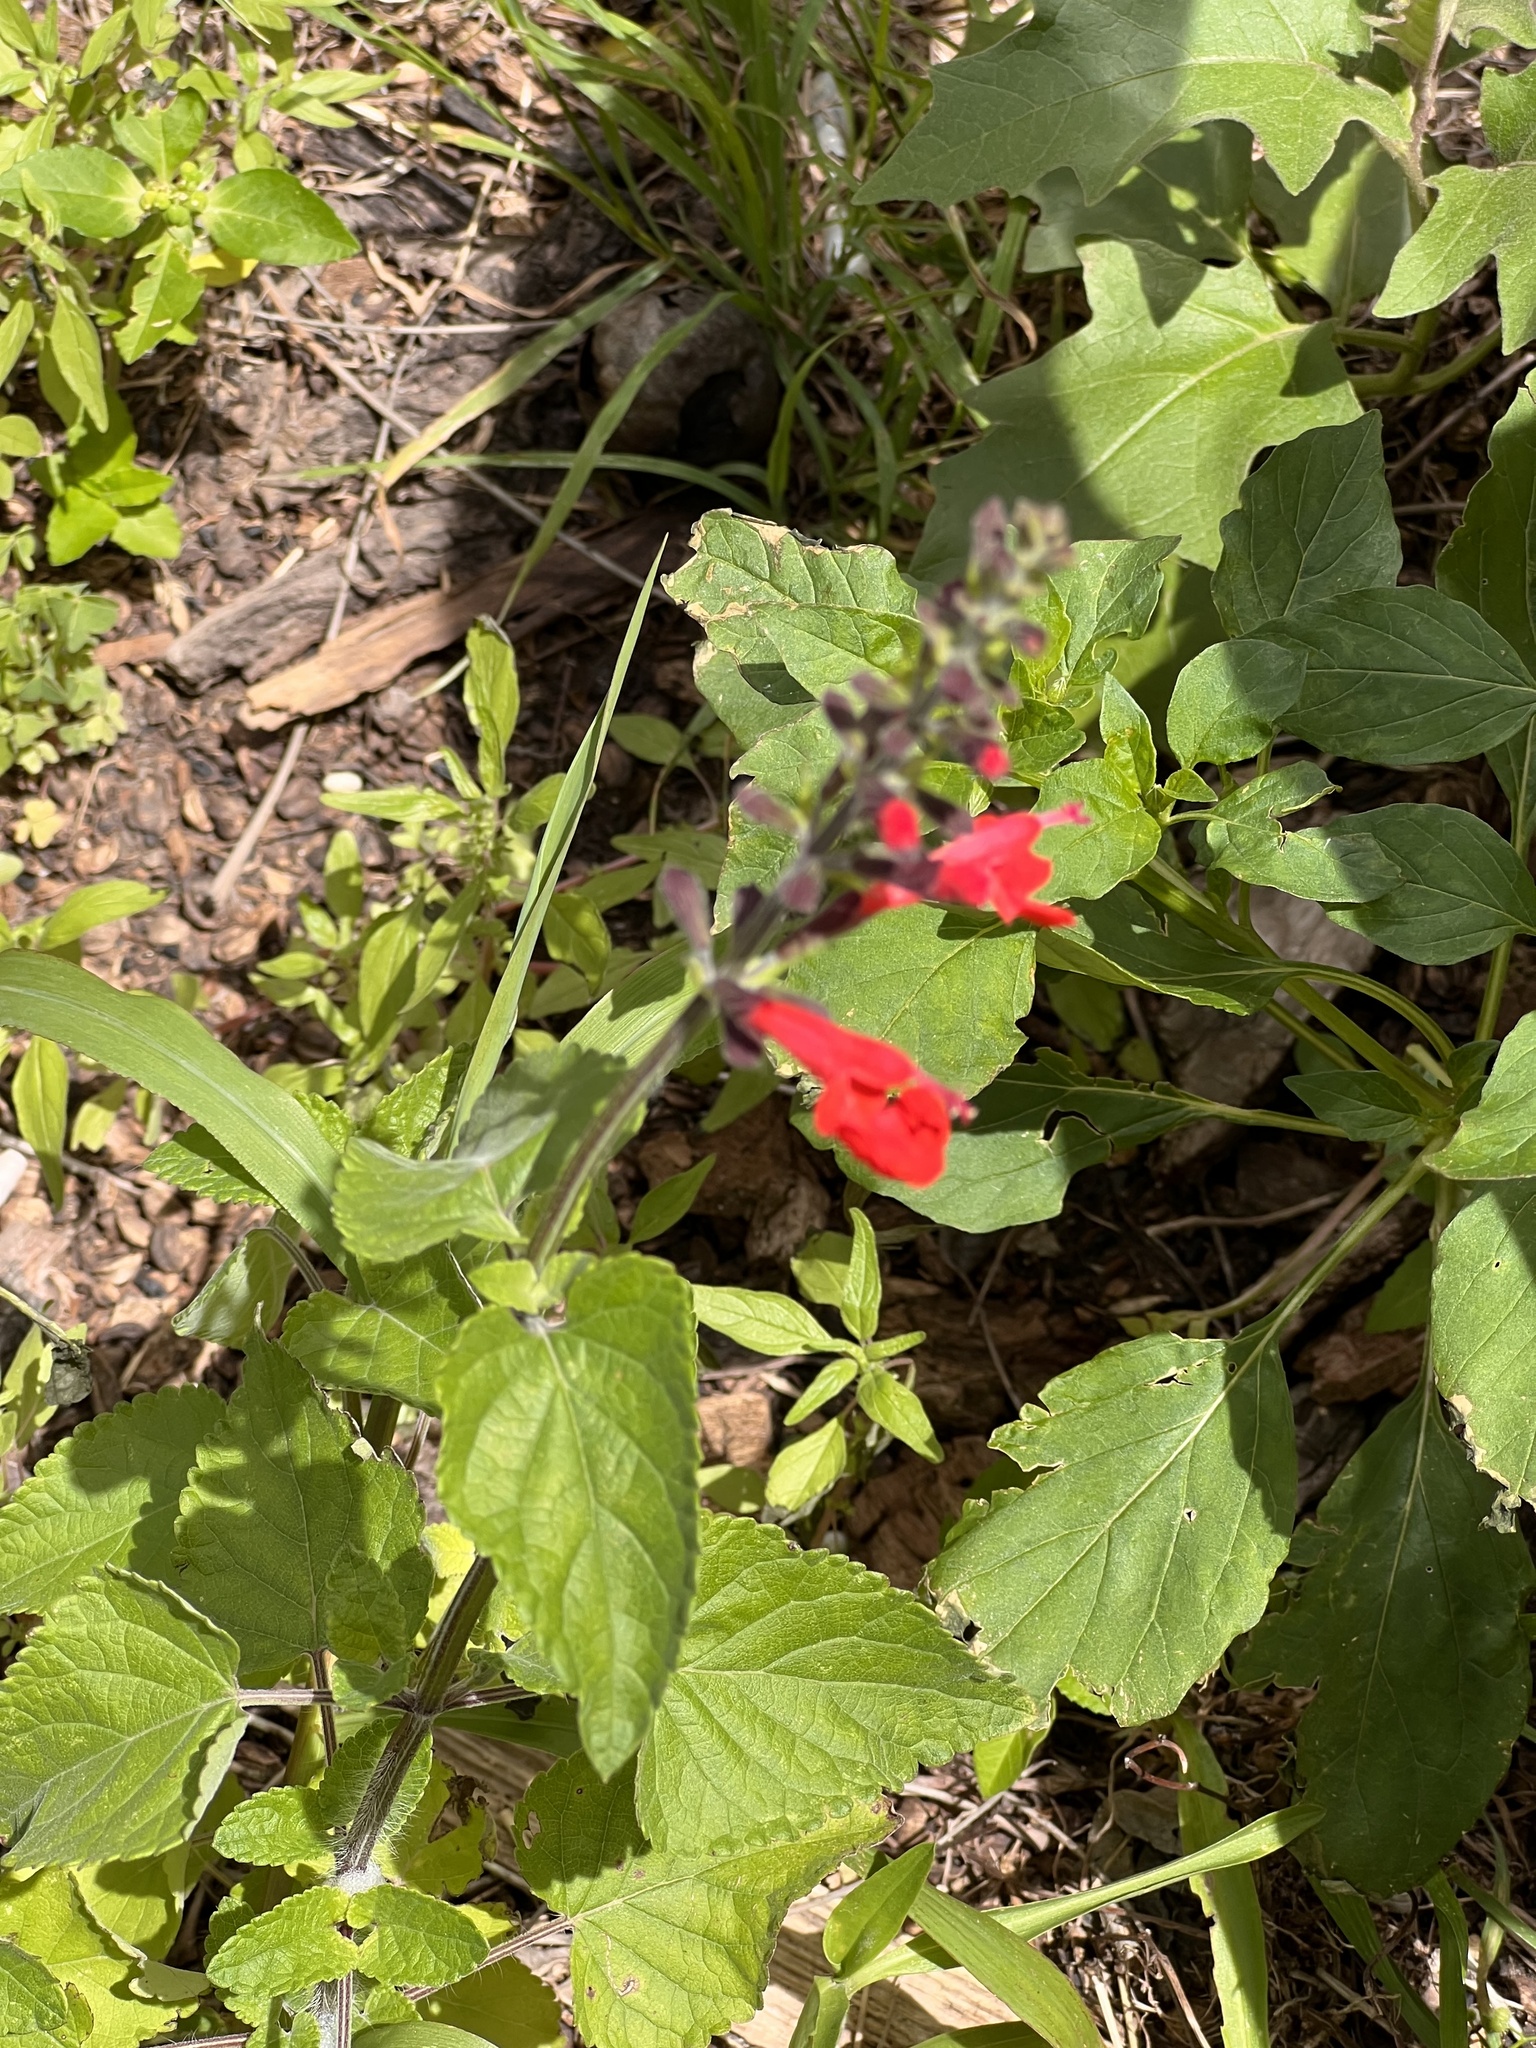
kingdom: Plantae
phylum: Tracheophyta
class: Magnoliopsida
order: Lamiales
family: Lamiaceae
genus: Salvia
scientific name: Salvia coccinea
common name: Blood sage
